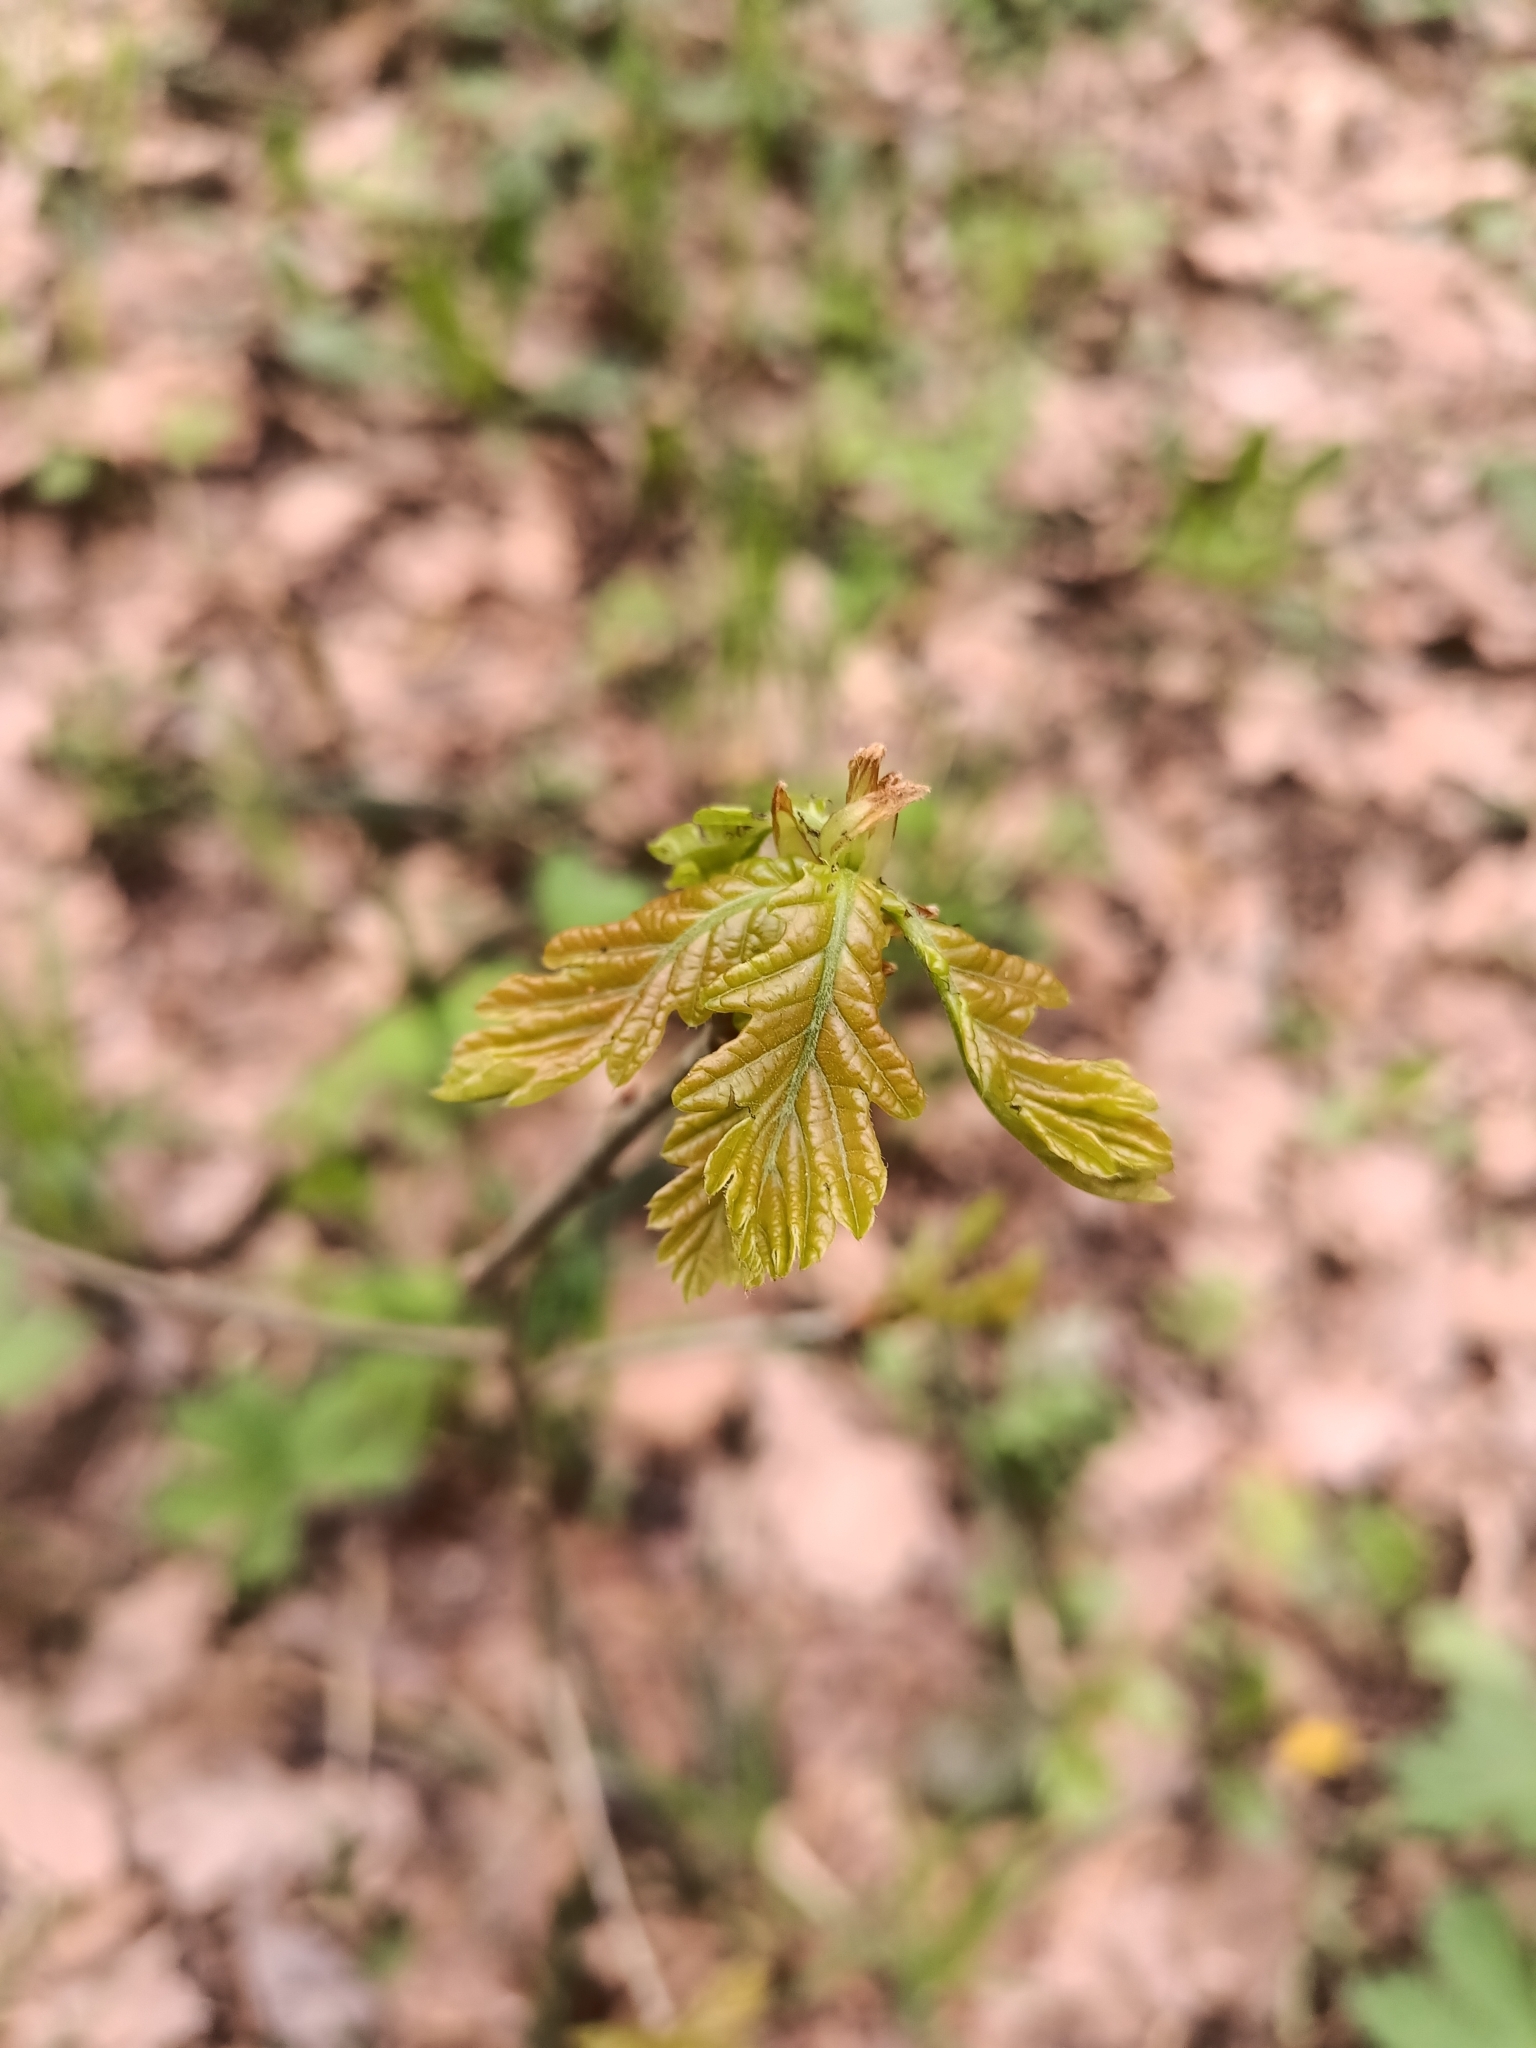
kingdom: Plantae
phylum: Tracheophyta
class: Magnoliopsida
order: Fagales
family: Fagaceae
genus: Quercus
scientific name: Quercus robur
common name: Pedunculate oak
